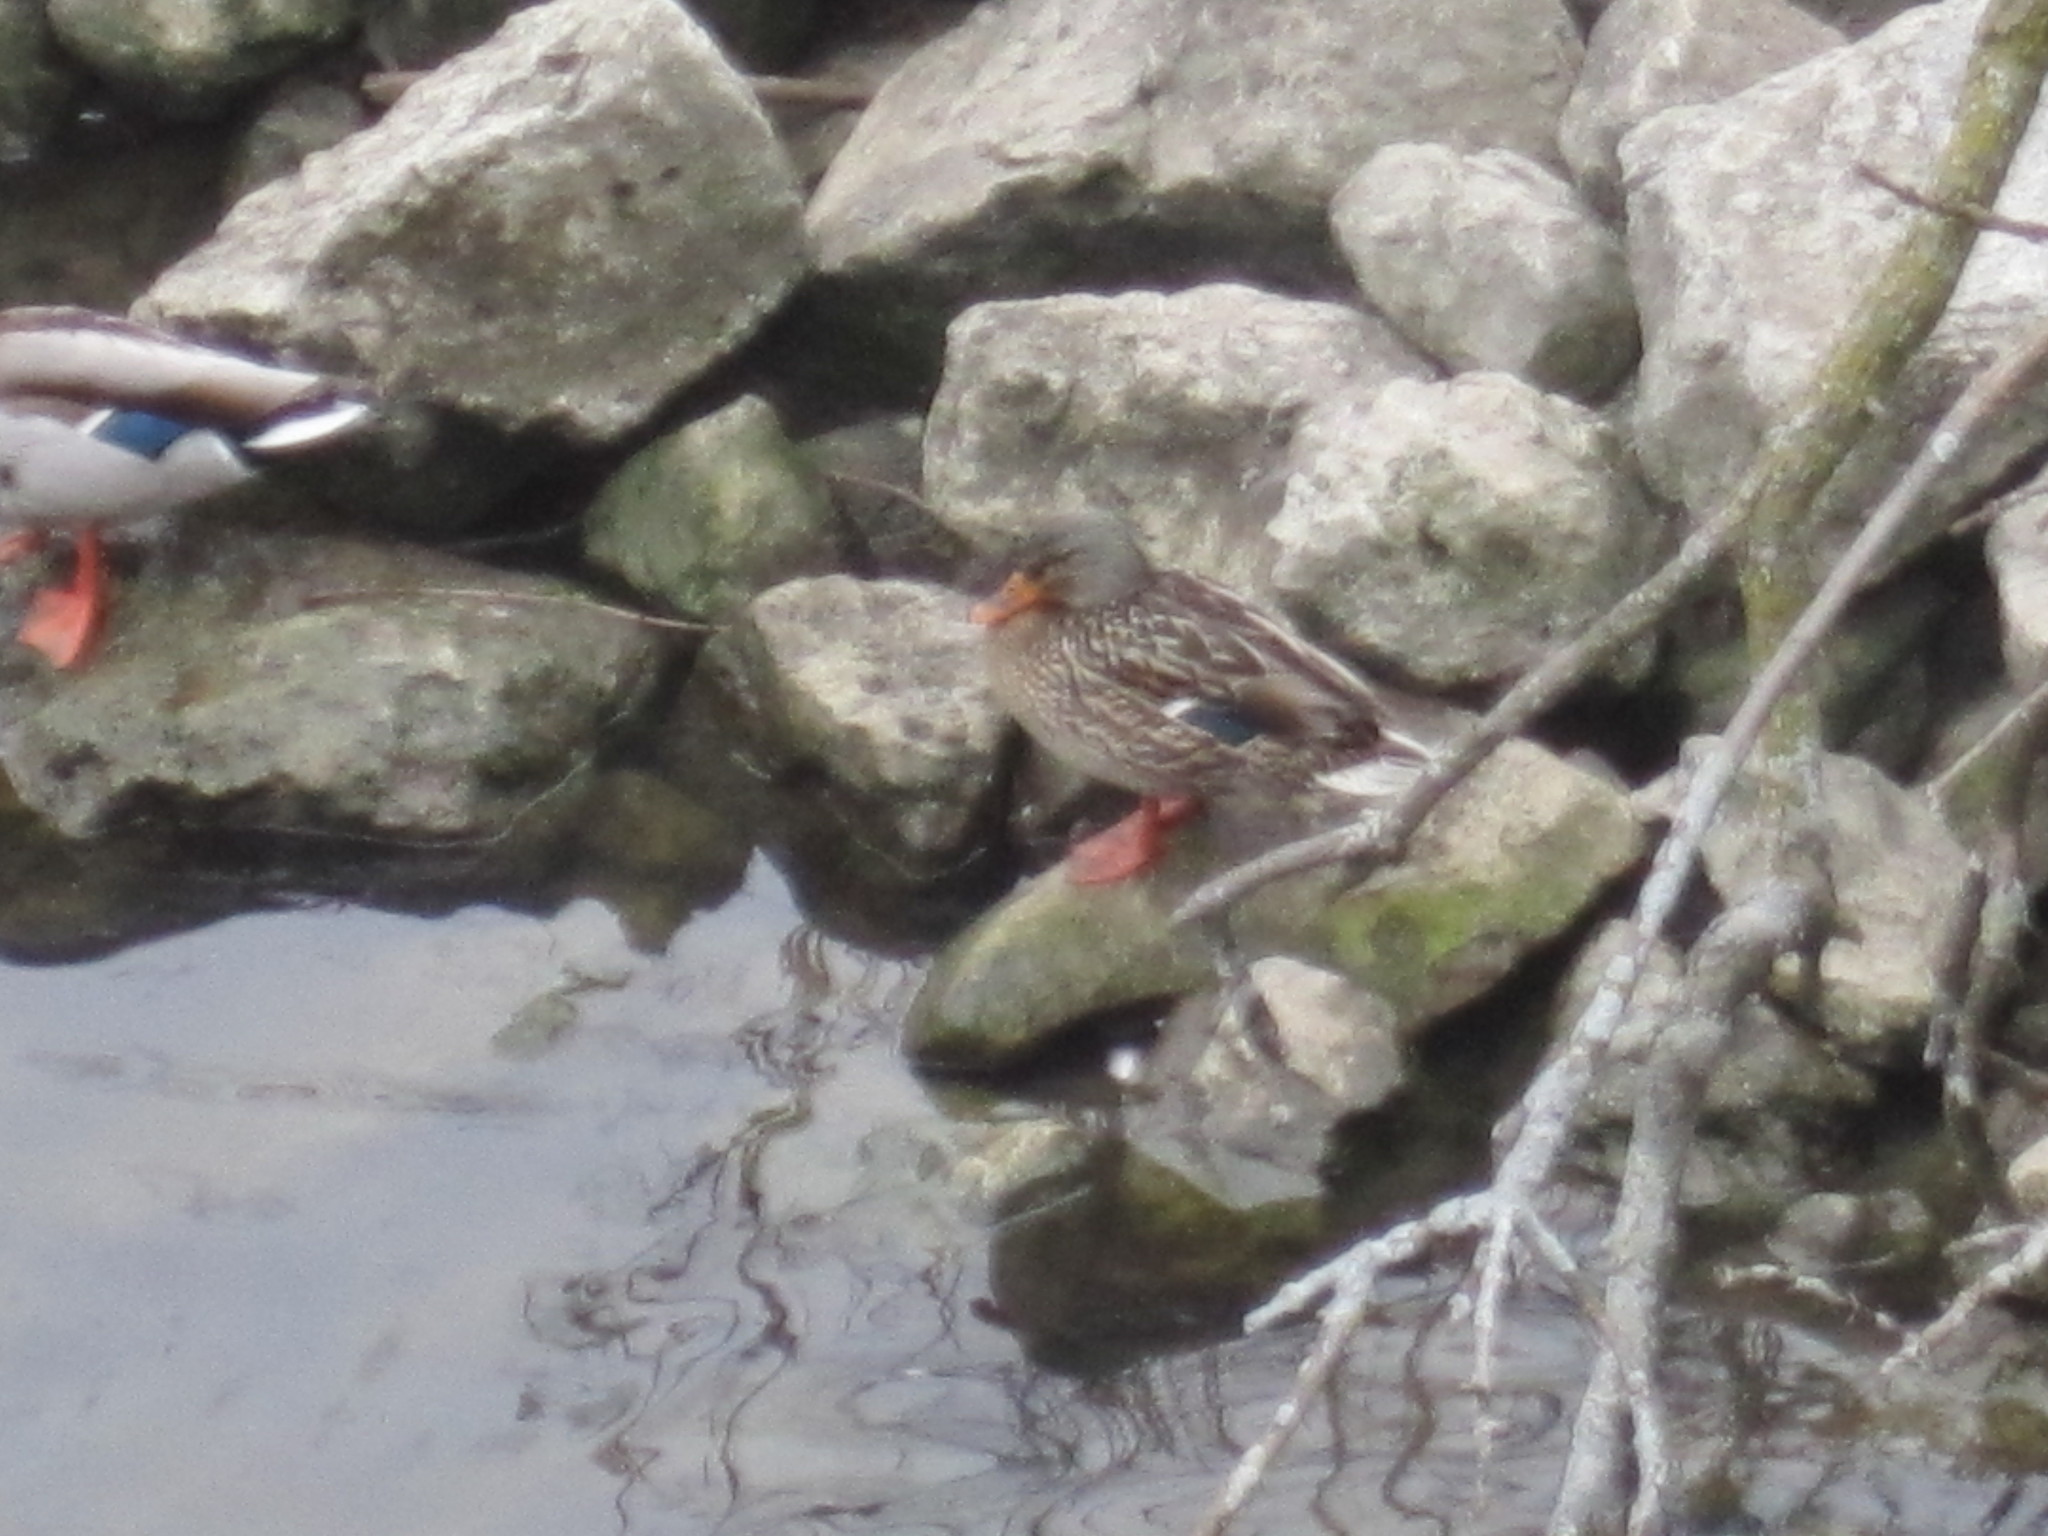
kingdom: Animalia
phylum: Chordata
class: Aves
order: Anseriformes
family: Anatidae
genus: Anas
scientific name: Anas platyrhynchos
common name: Mallard
